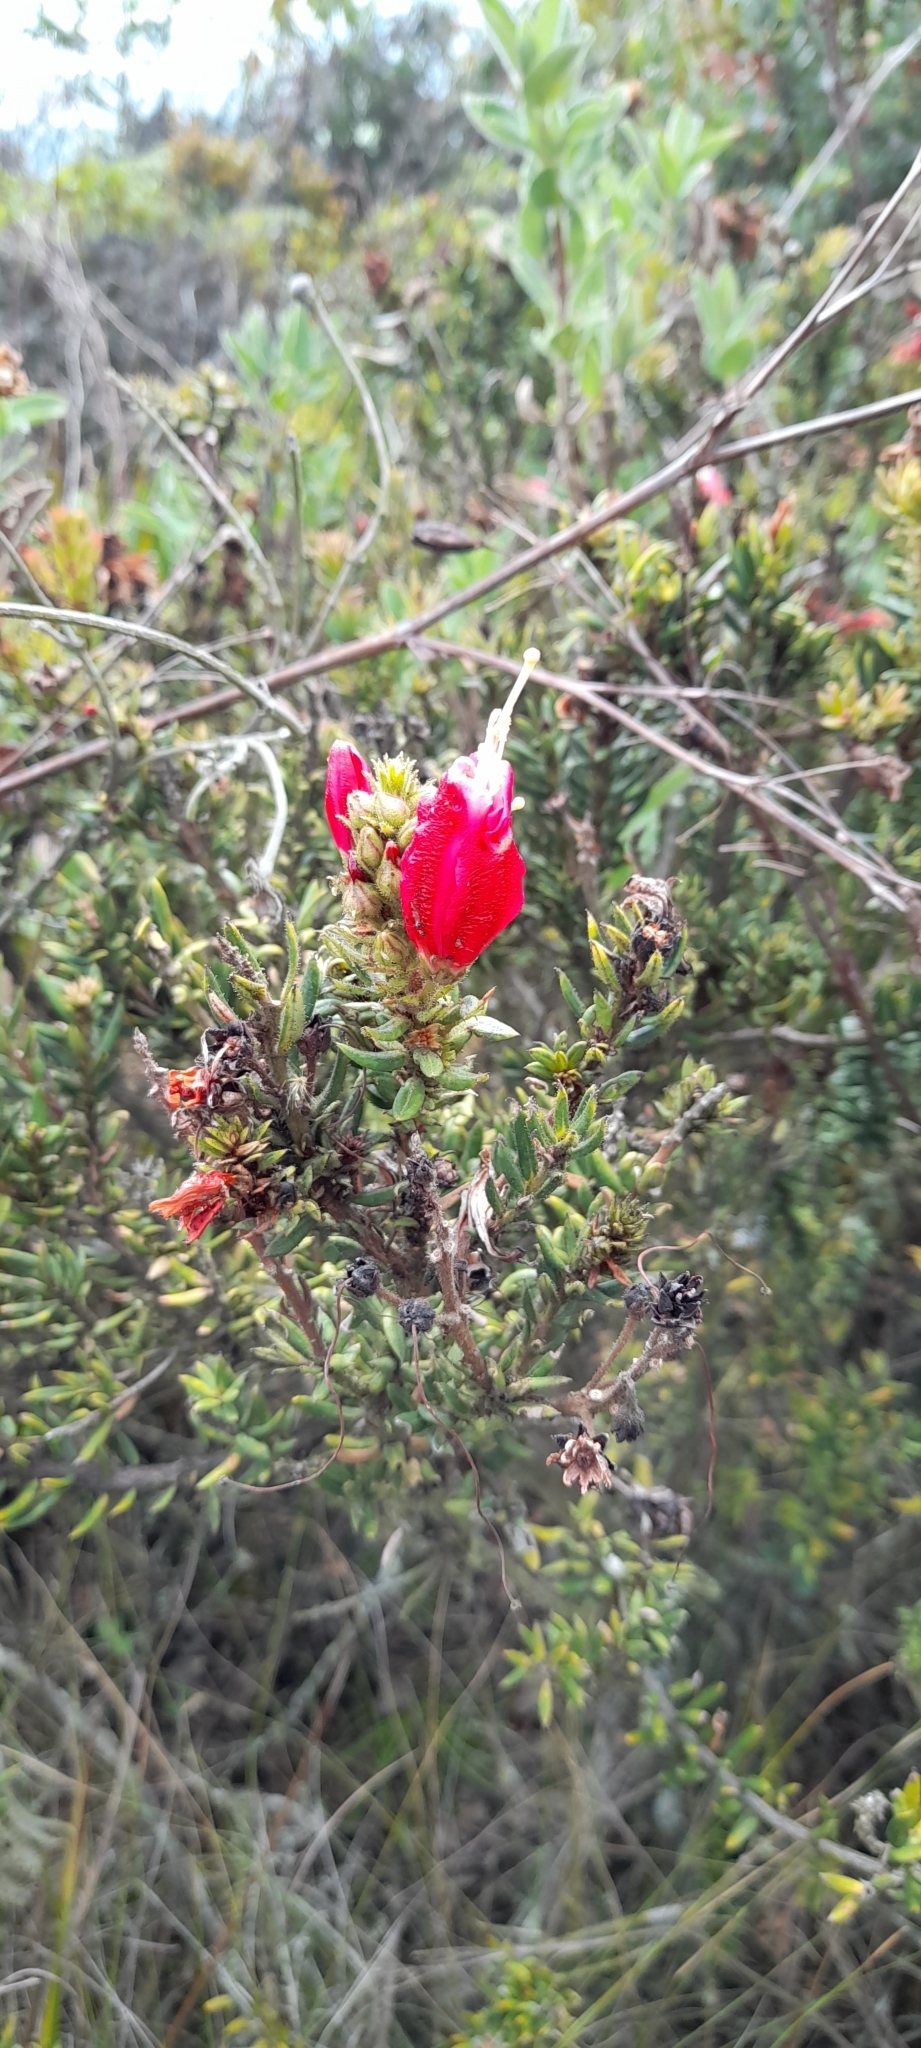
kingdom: Plantae
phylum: Tracheophyta
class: Magnoliopsida
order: Ericales
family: Ericaceae
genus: Bejaria
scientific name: Bejaria resinosa
